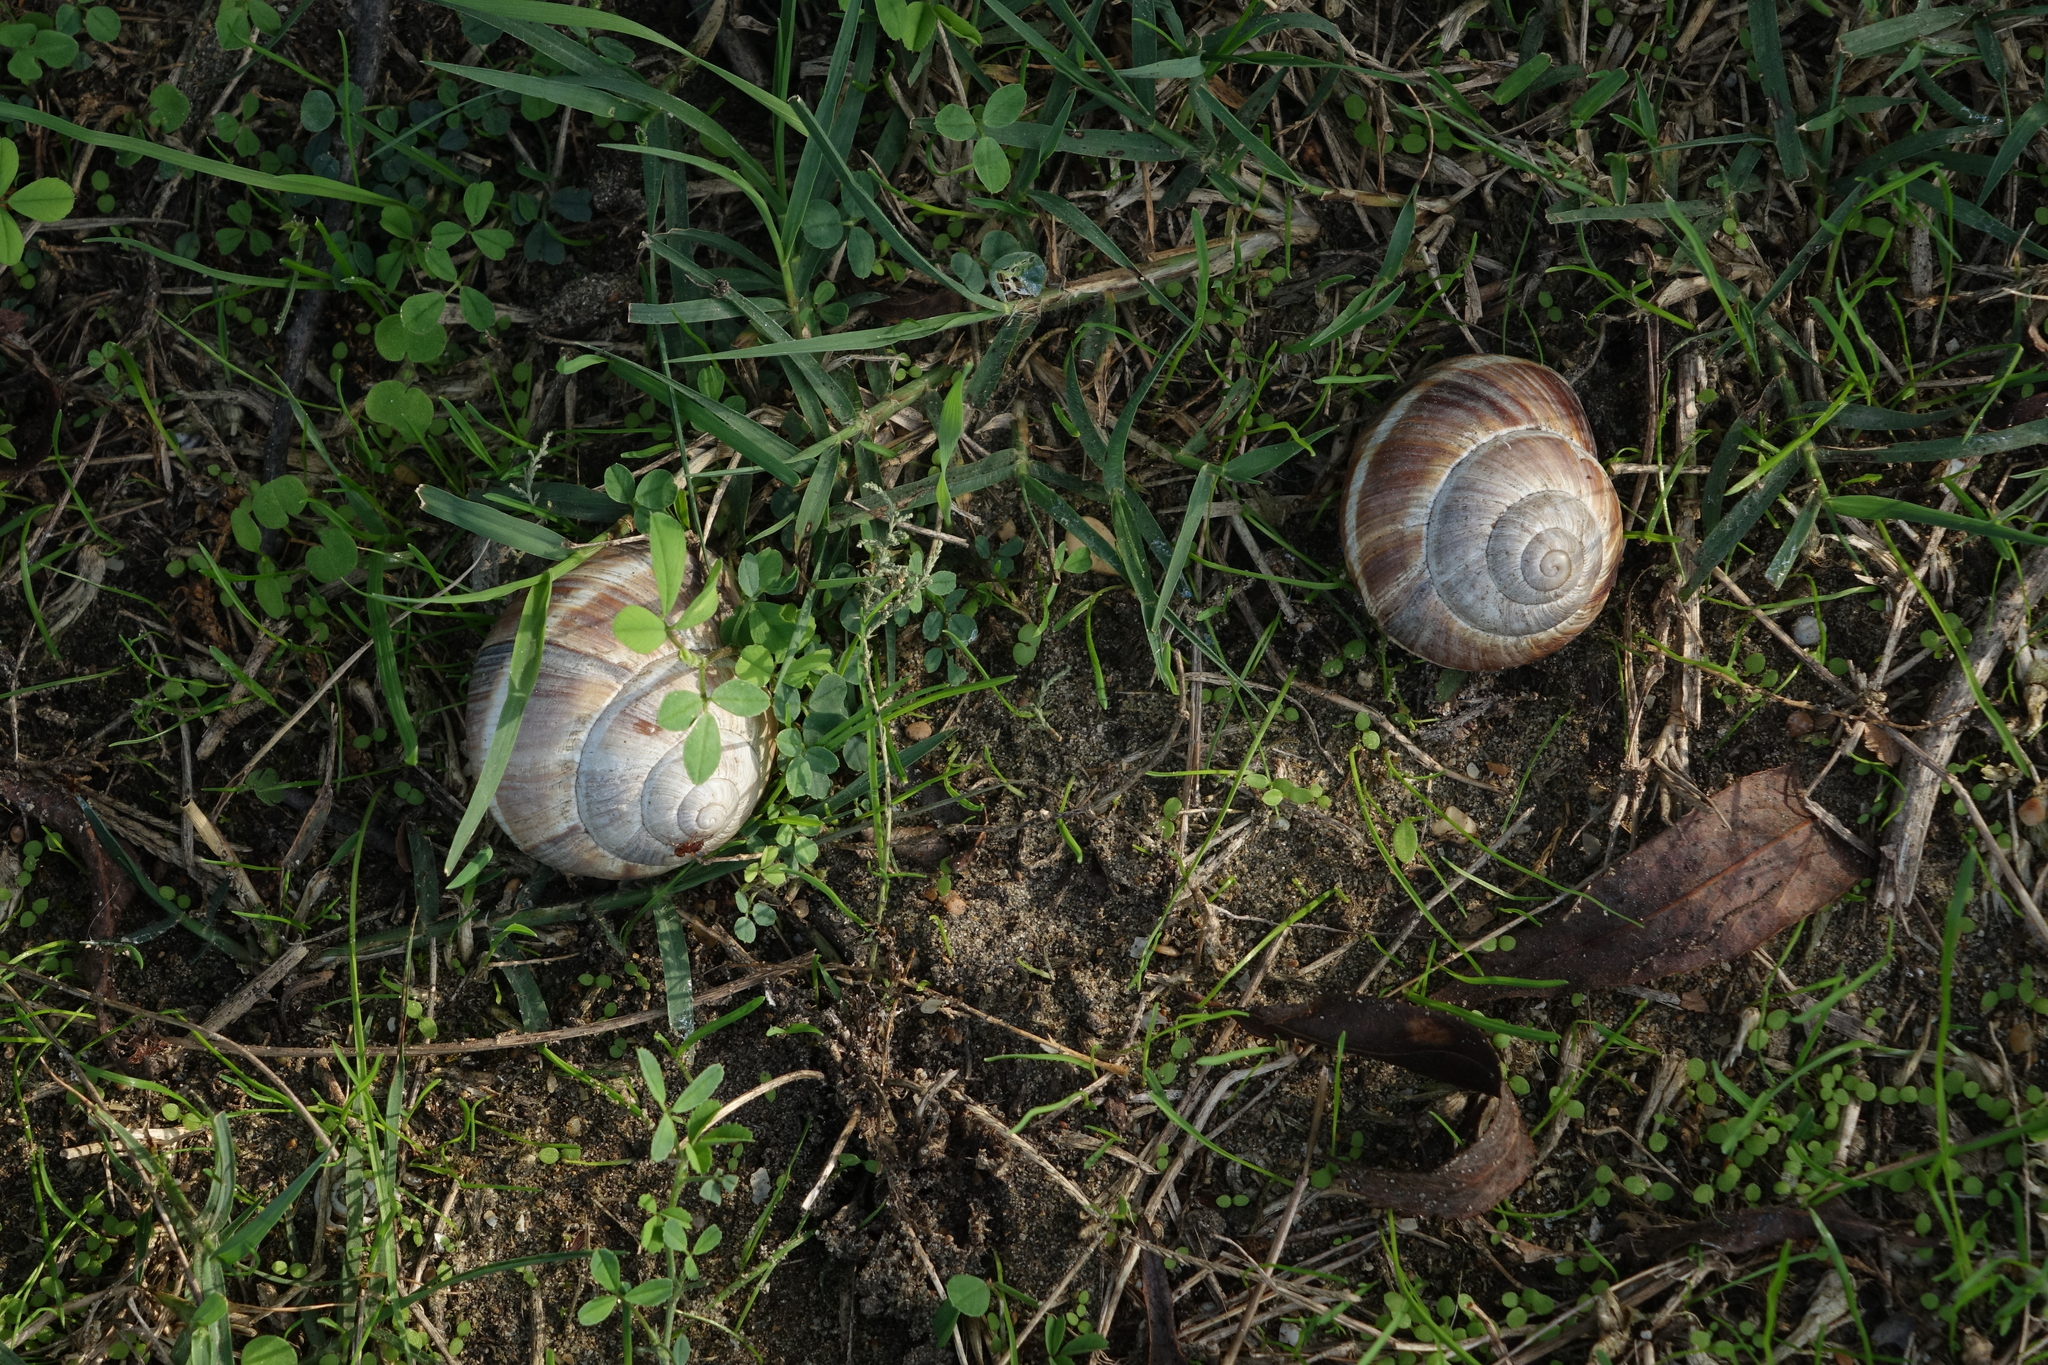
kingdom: Animalia
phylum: Mollusca
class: Gastropoda
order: Stylommatophora
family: Helicidae
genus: Helix
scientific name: Helix lucorum
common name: Turkish snail
